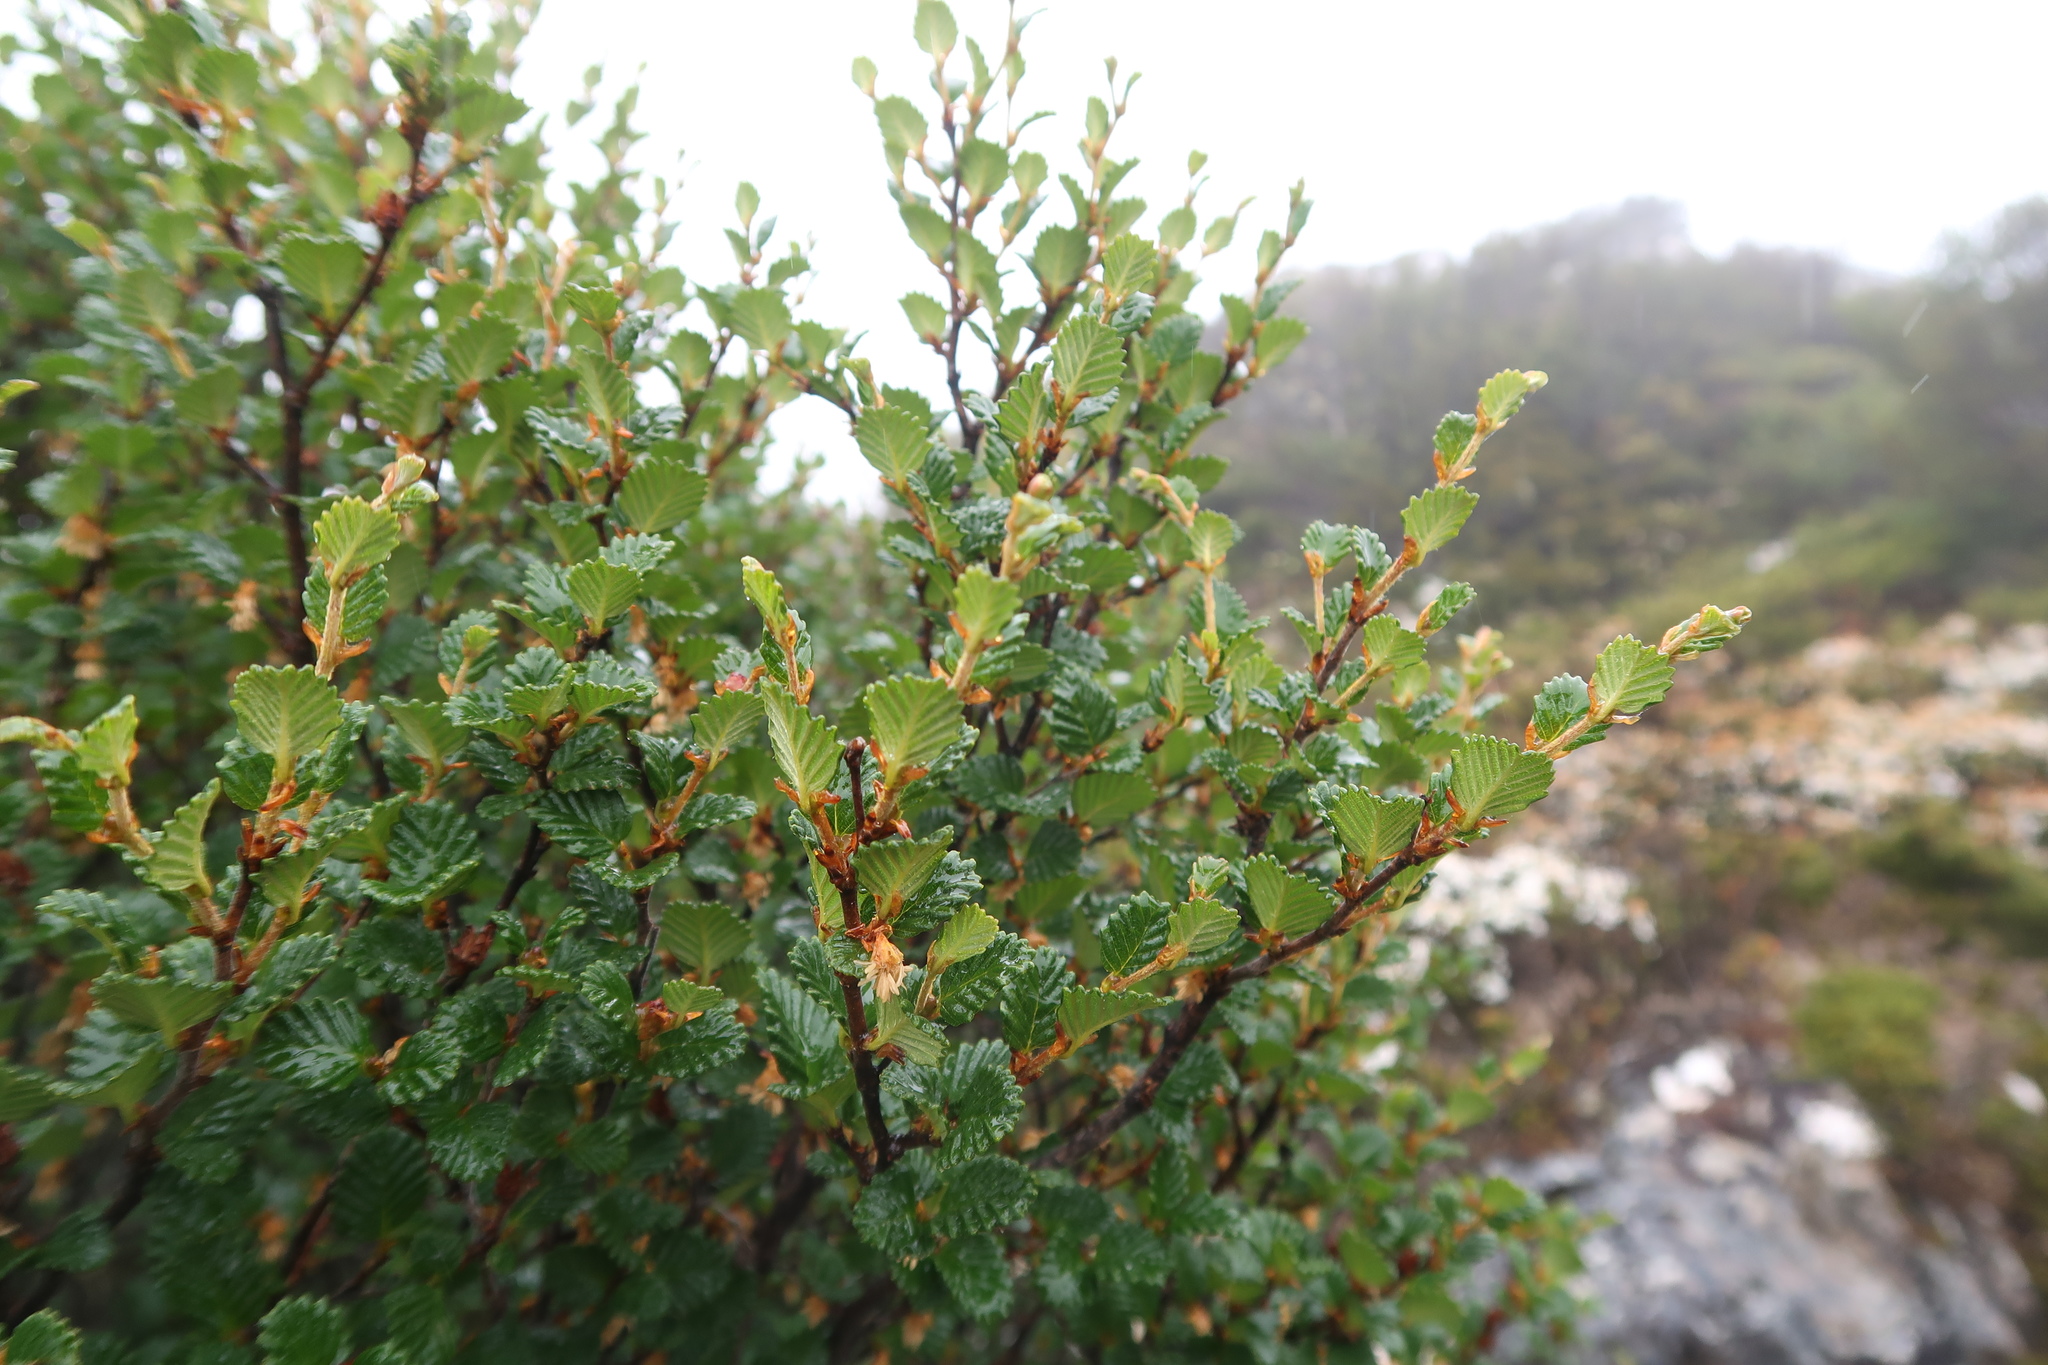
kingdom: Plantae
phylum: Tracheophyta
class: Magnoliopsida
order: Fagales
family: Nothofagaceae
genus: Nothofagus
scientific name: Nothofagus gunnii
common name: Tanglefoot
